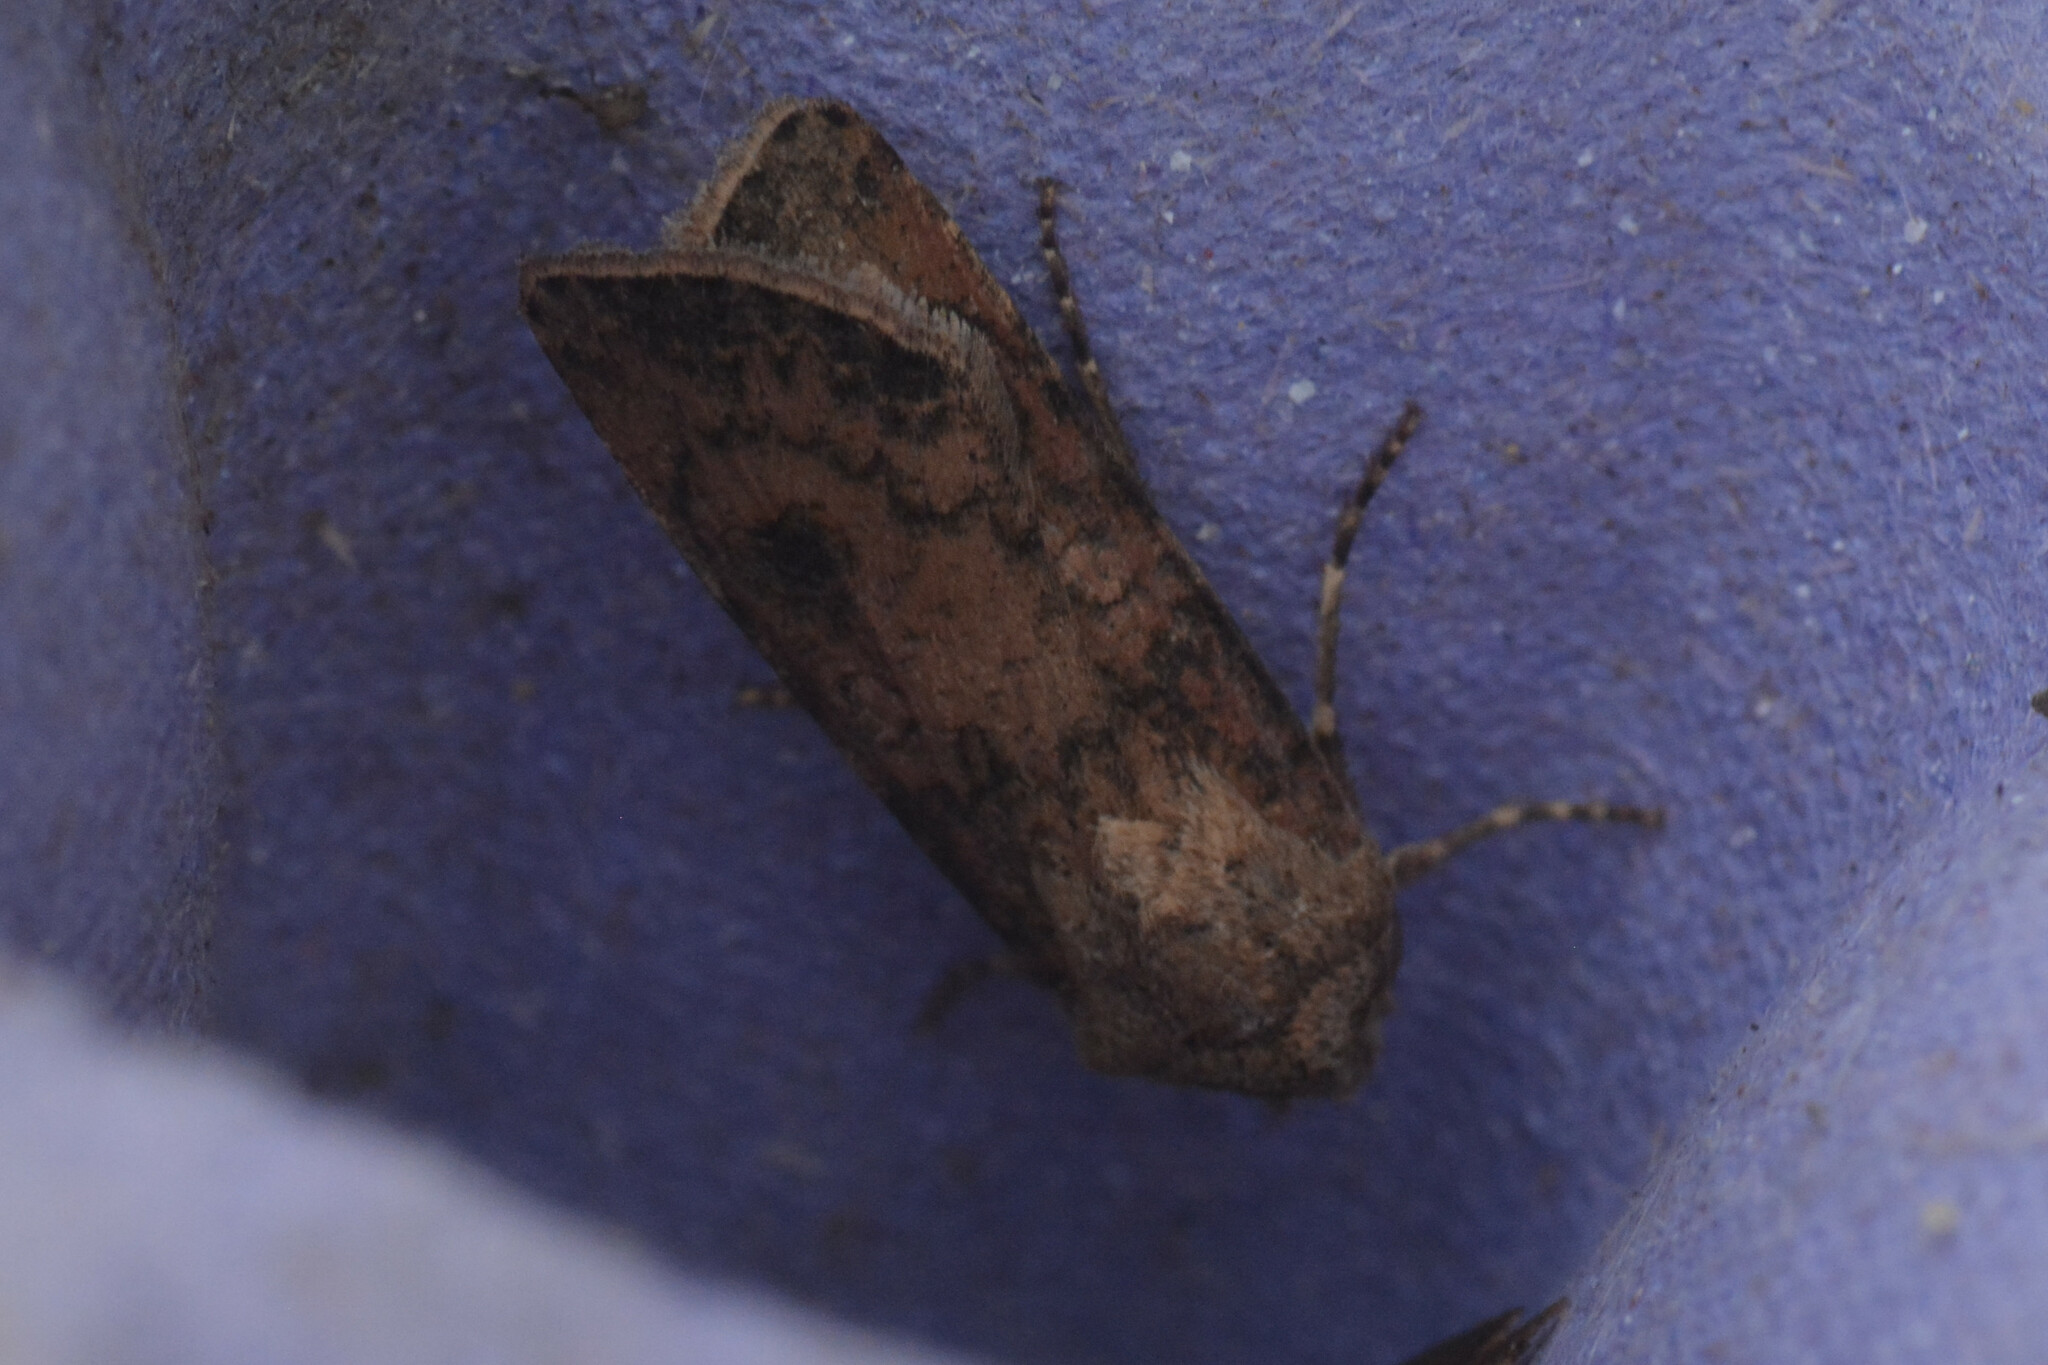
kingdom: Animalia
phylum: Arthropoda
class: Insecta
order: Lepidoptera
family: Noctuidae
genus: Agrotis
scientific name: Agrotis segetum
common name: Turnip moth
